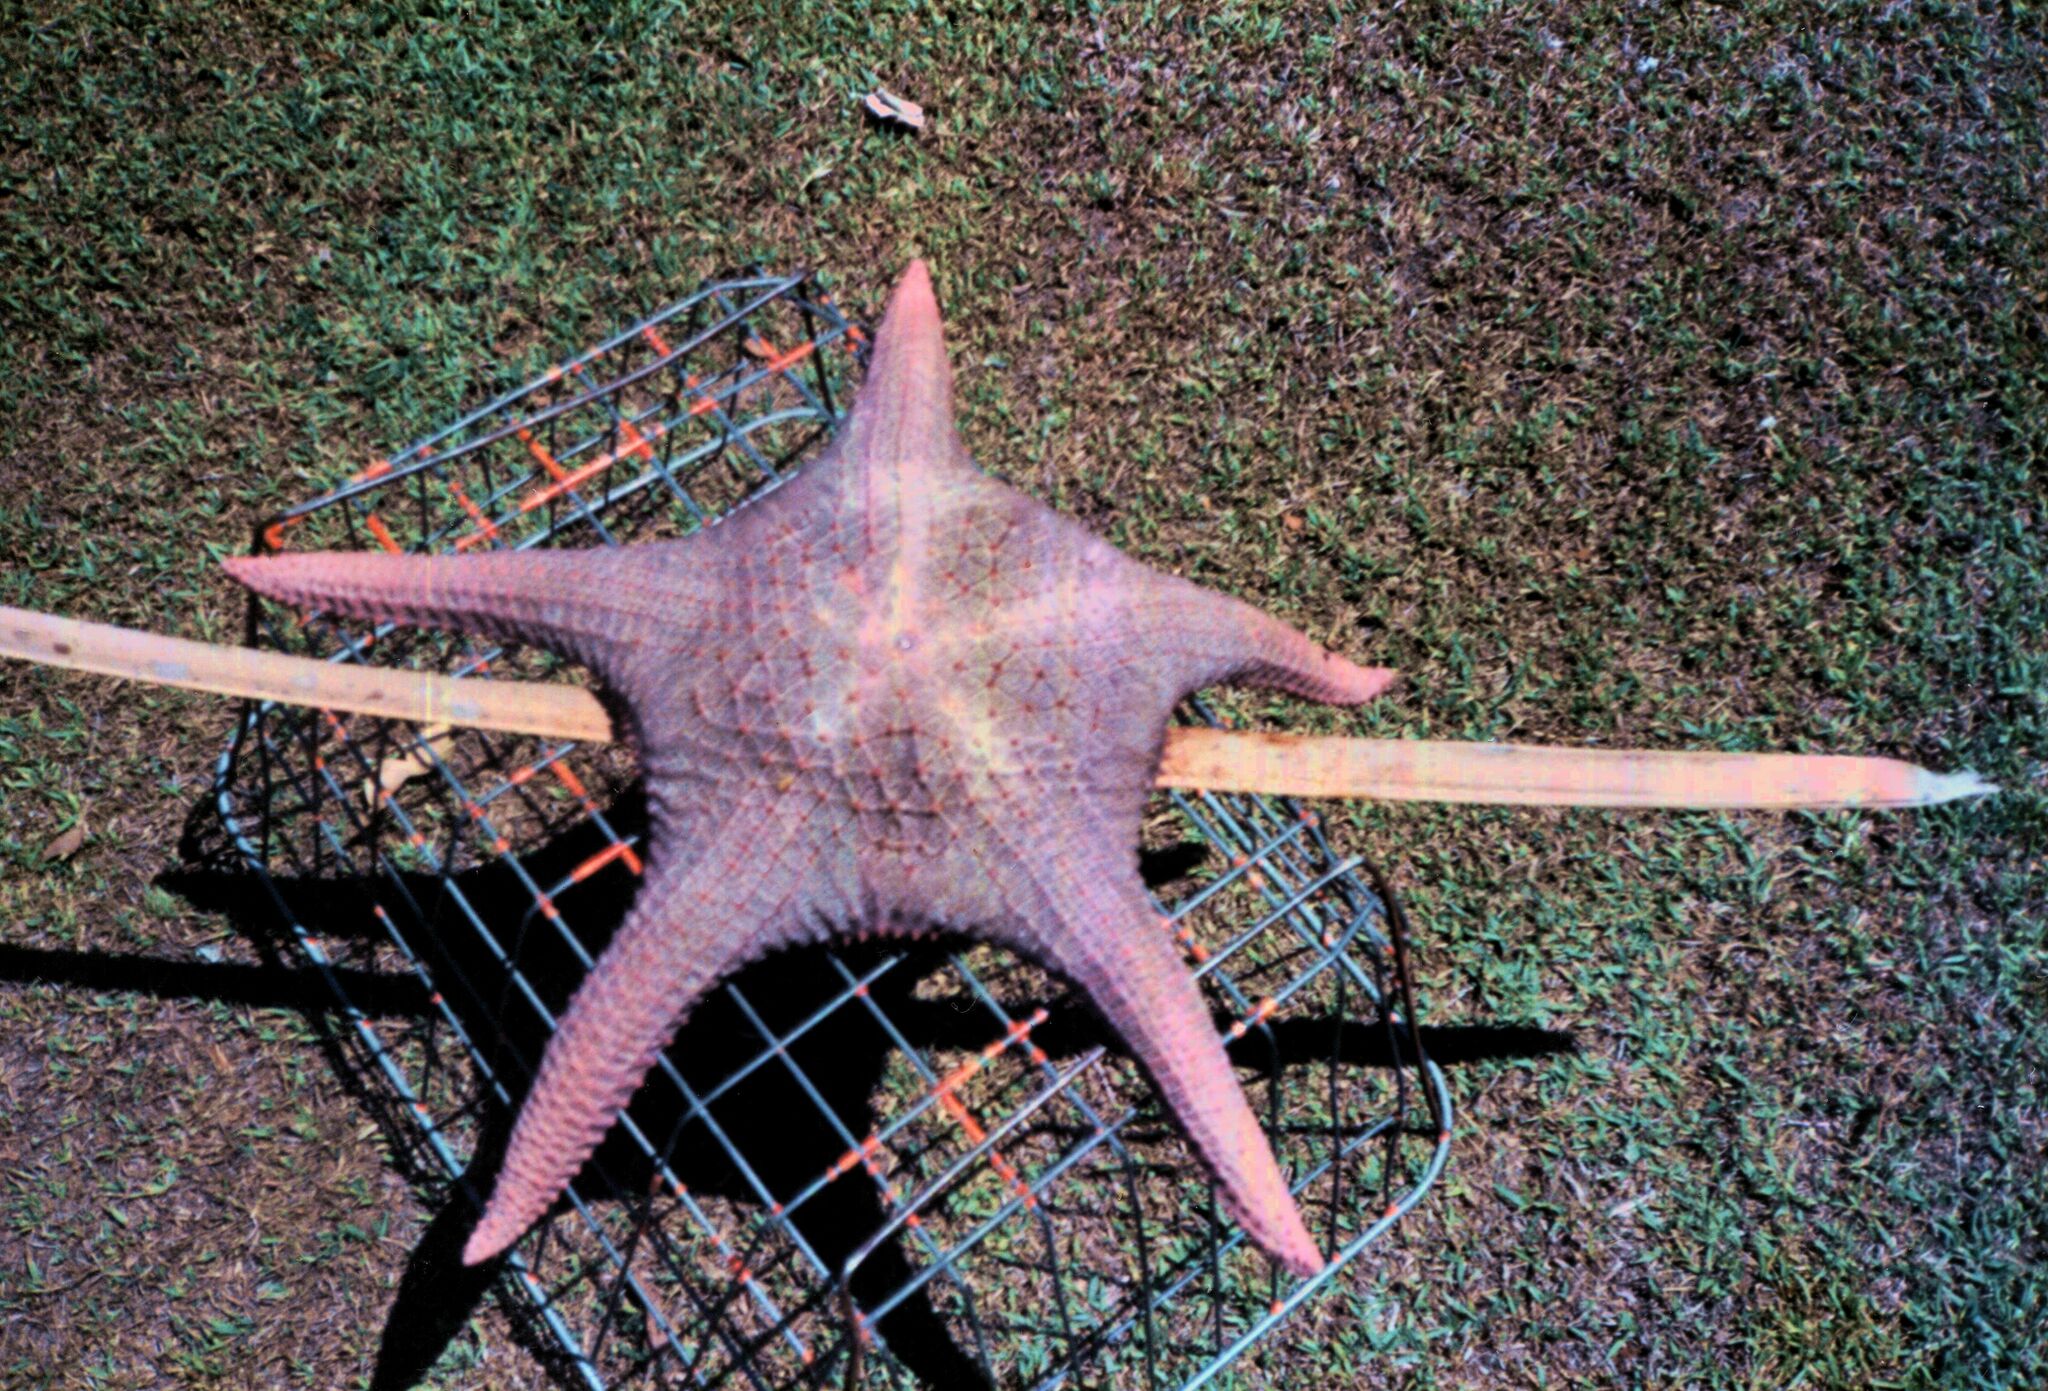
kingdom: Animalia
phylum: Echinodermata
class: Asteroidea
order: Valvatida
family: Oreasteridae
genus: Pentaceraster
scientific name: Pentaceraster gracilis
